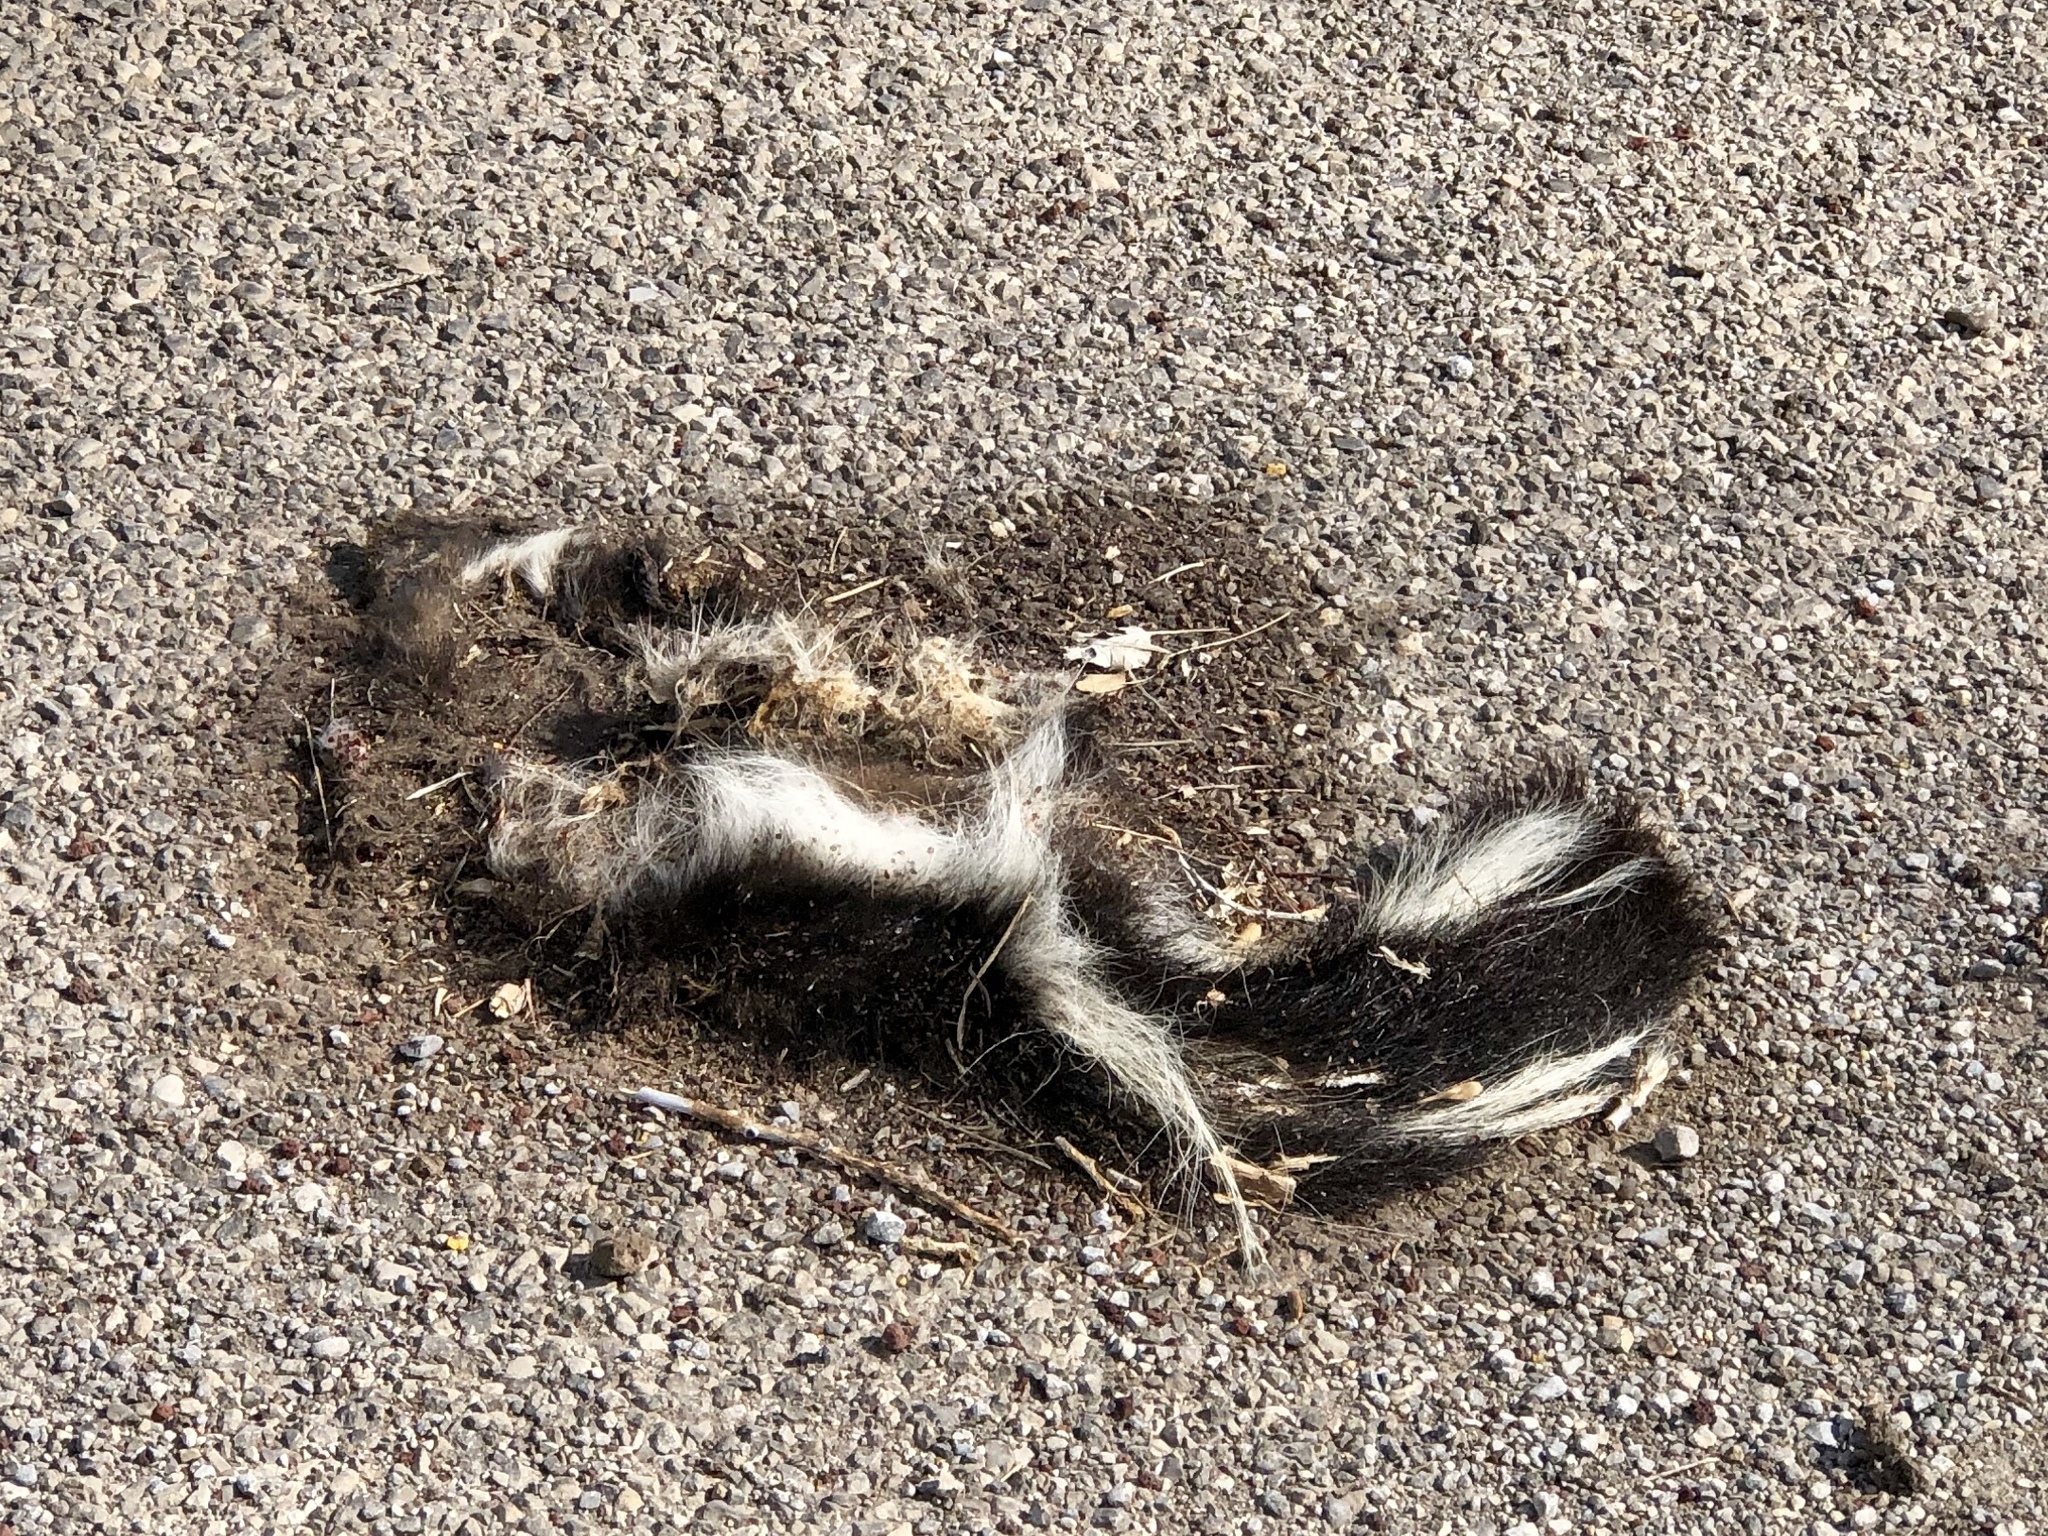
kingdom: Animalia
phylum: Chordata
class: Mammalia
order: Carnivora
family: Mephitidae
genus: Mephitis
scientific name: Mephitis mephitis
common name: Striped skunk
